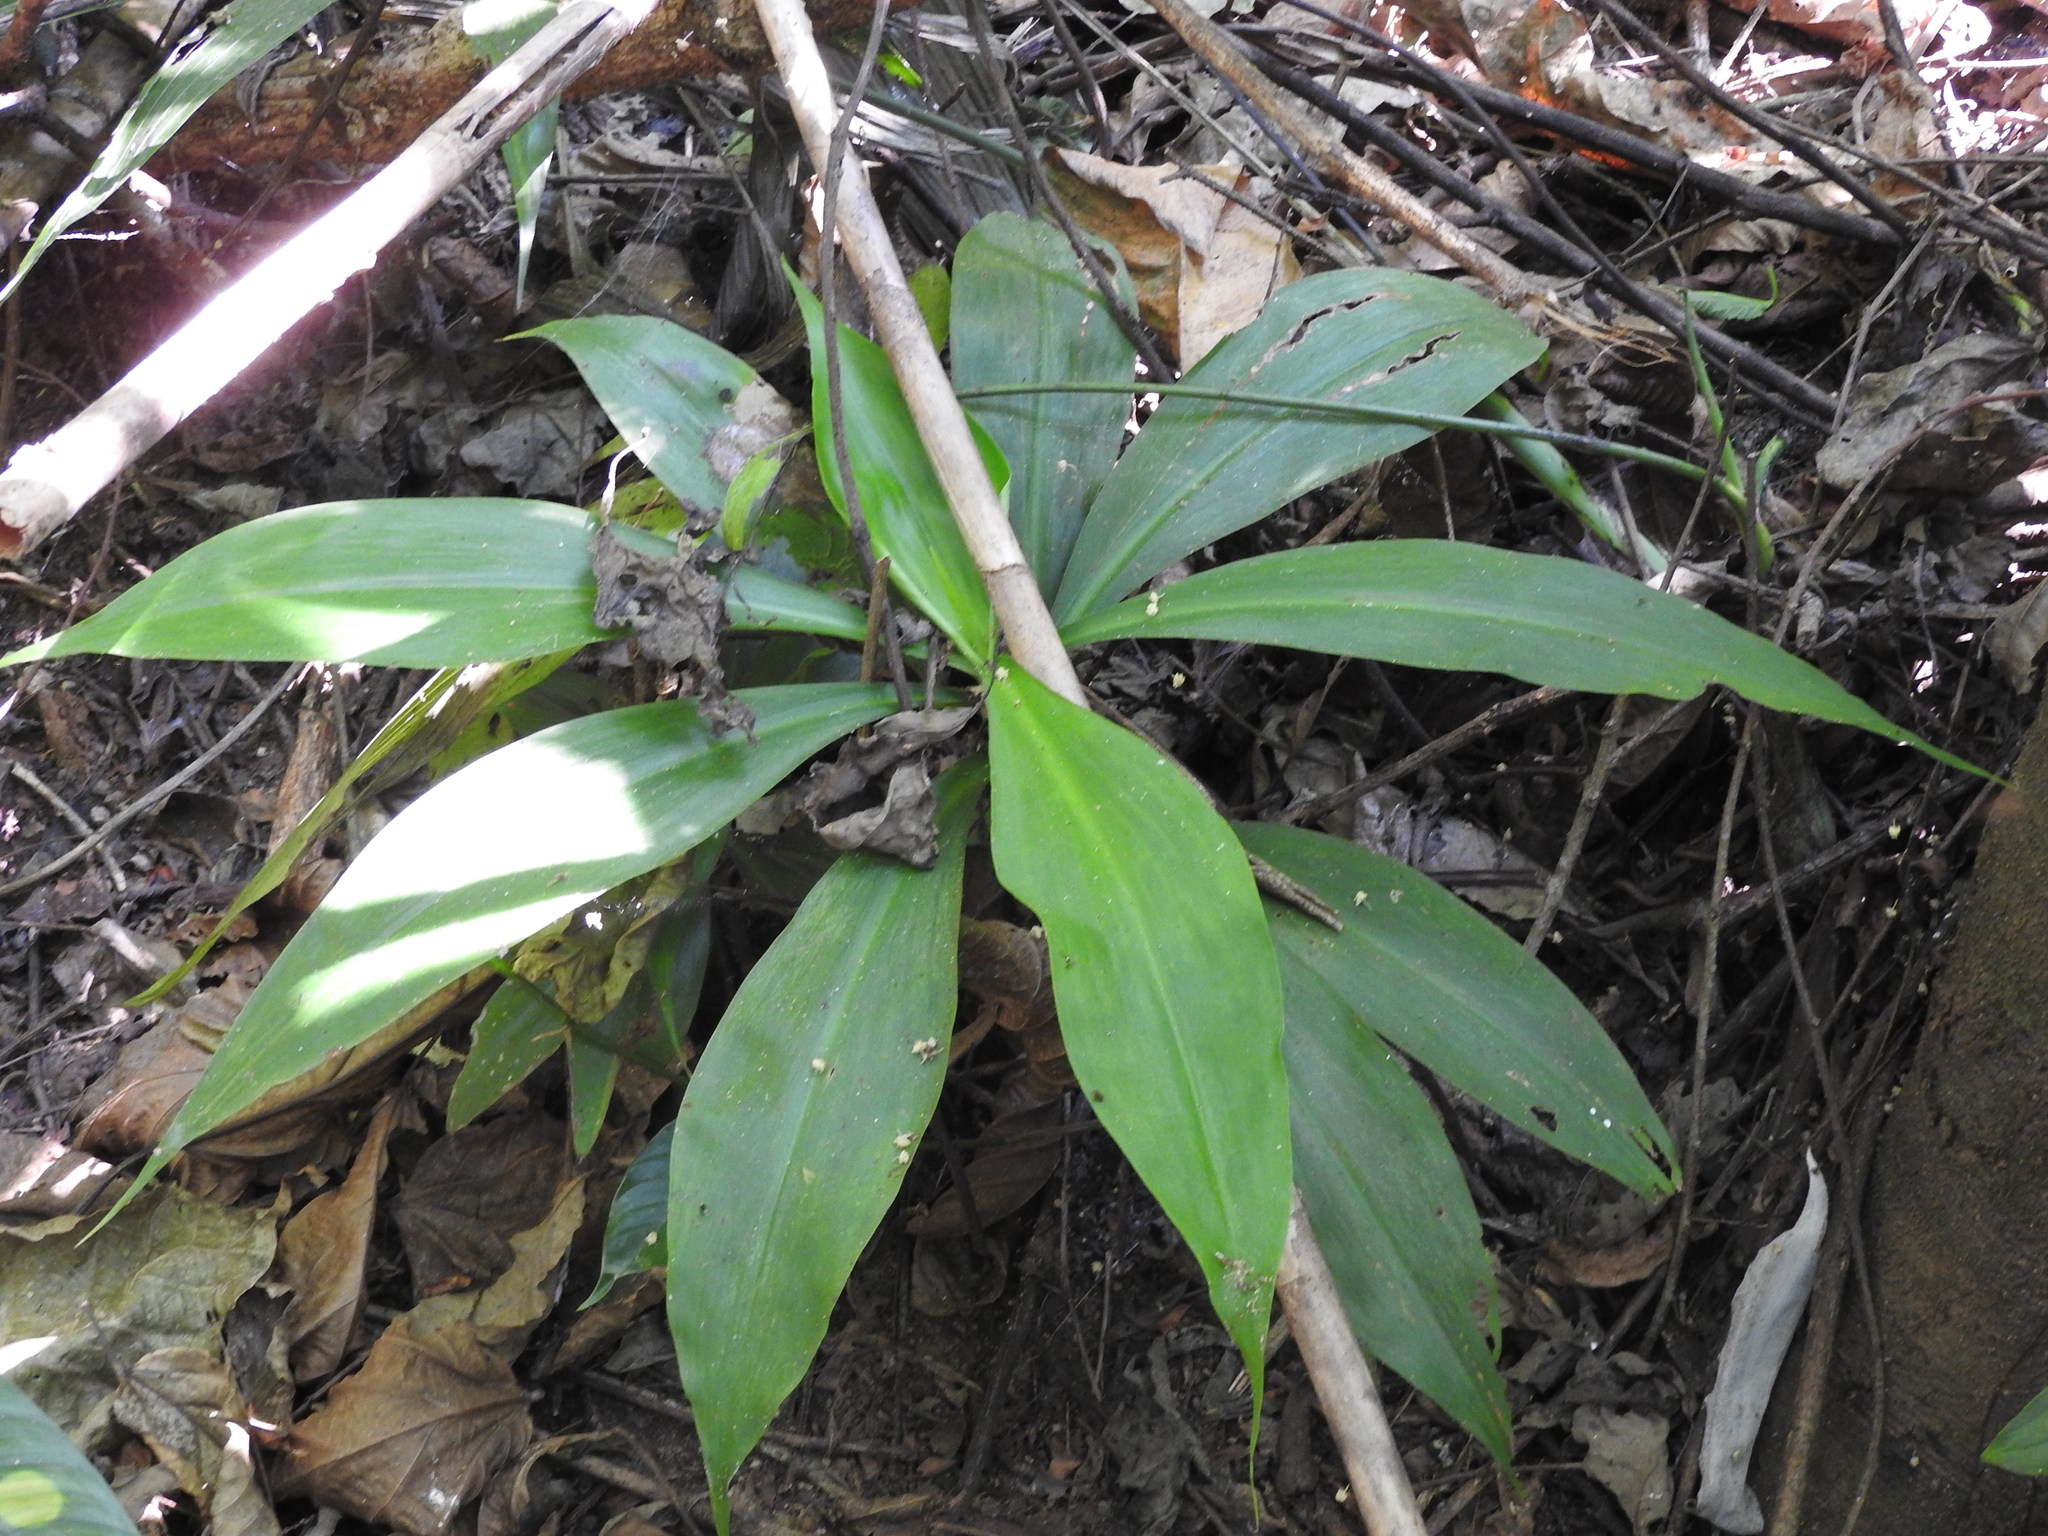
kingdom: Plantae
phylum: Tracheophyta
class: Liliopsida
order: Zingiberales
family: Costaceae
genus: Costus
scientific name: Costus pictus
